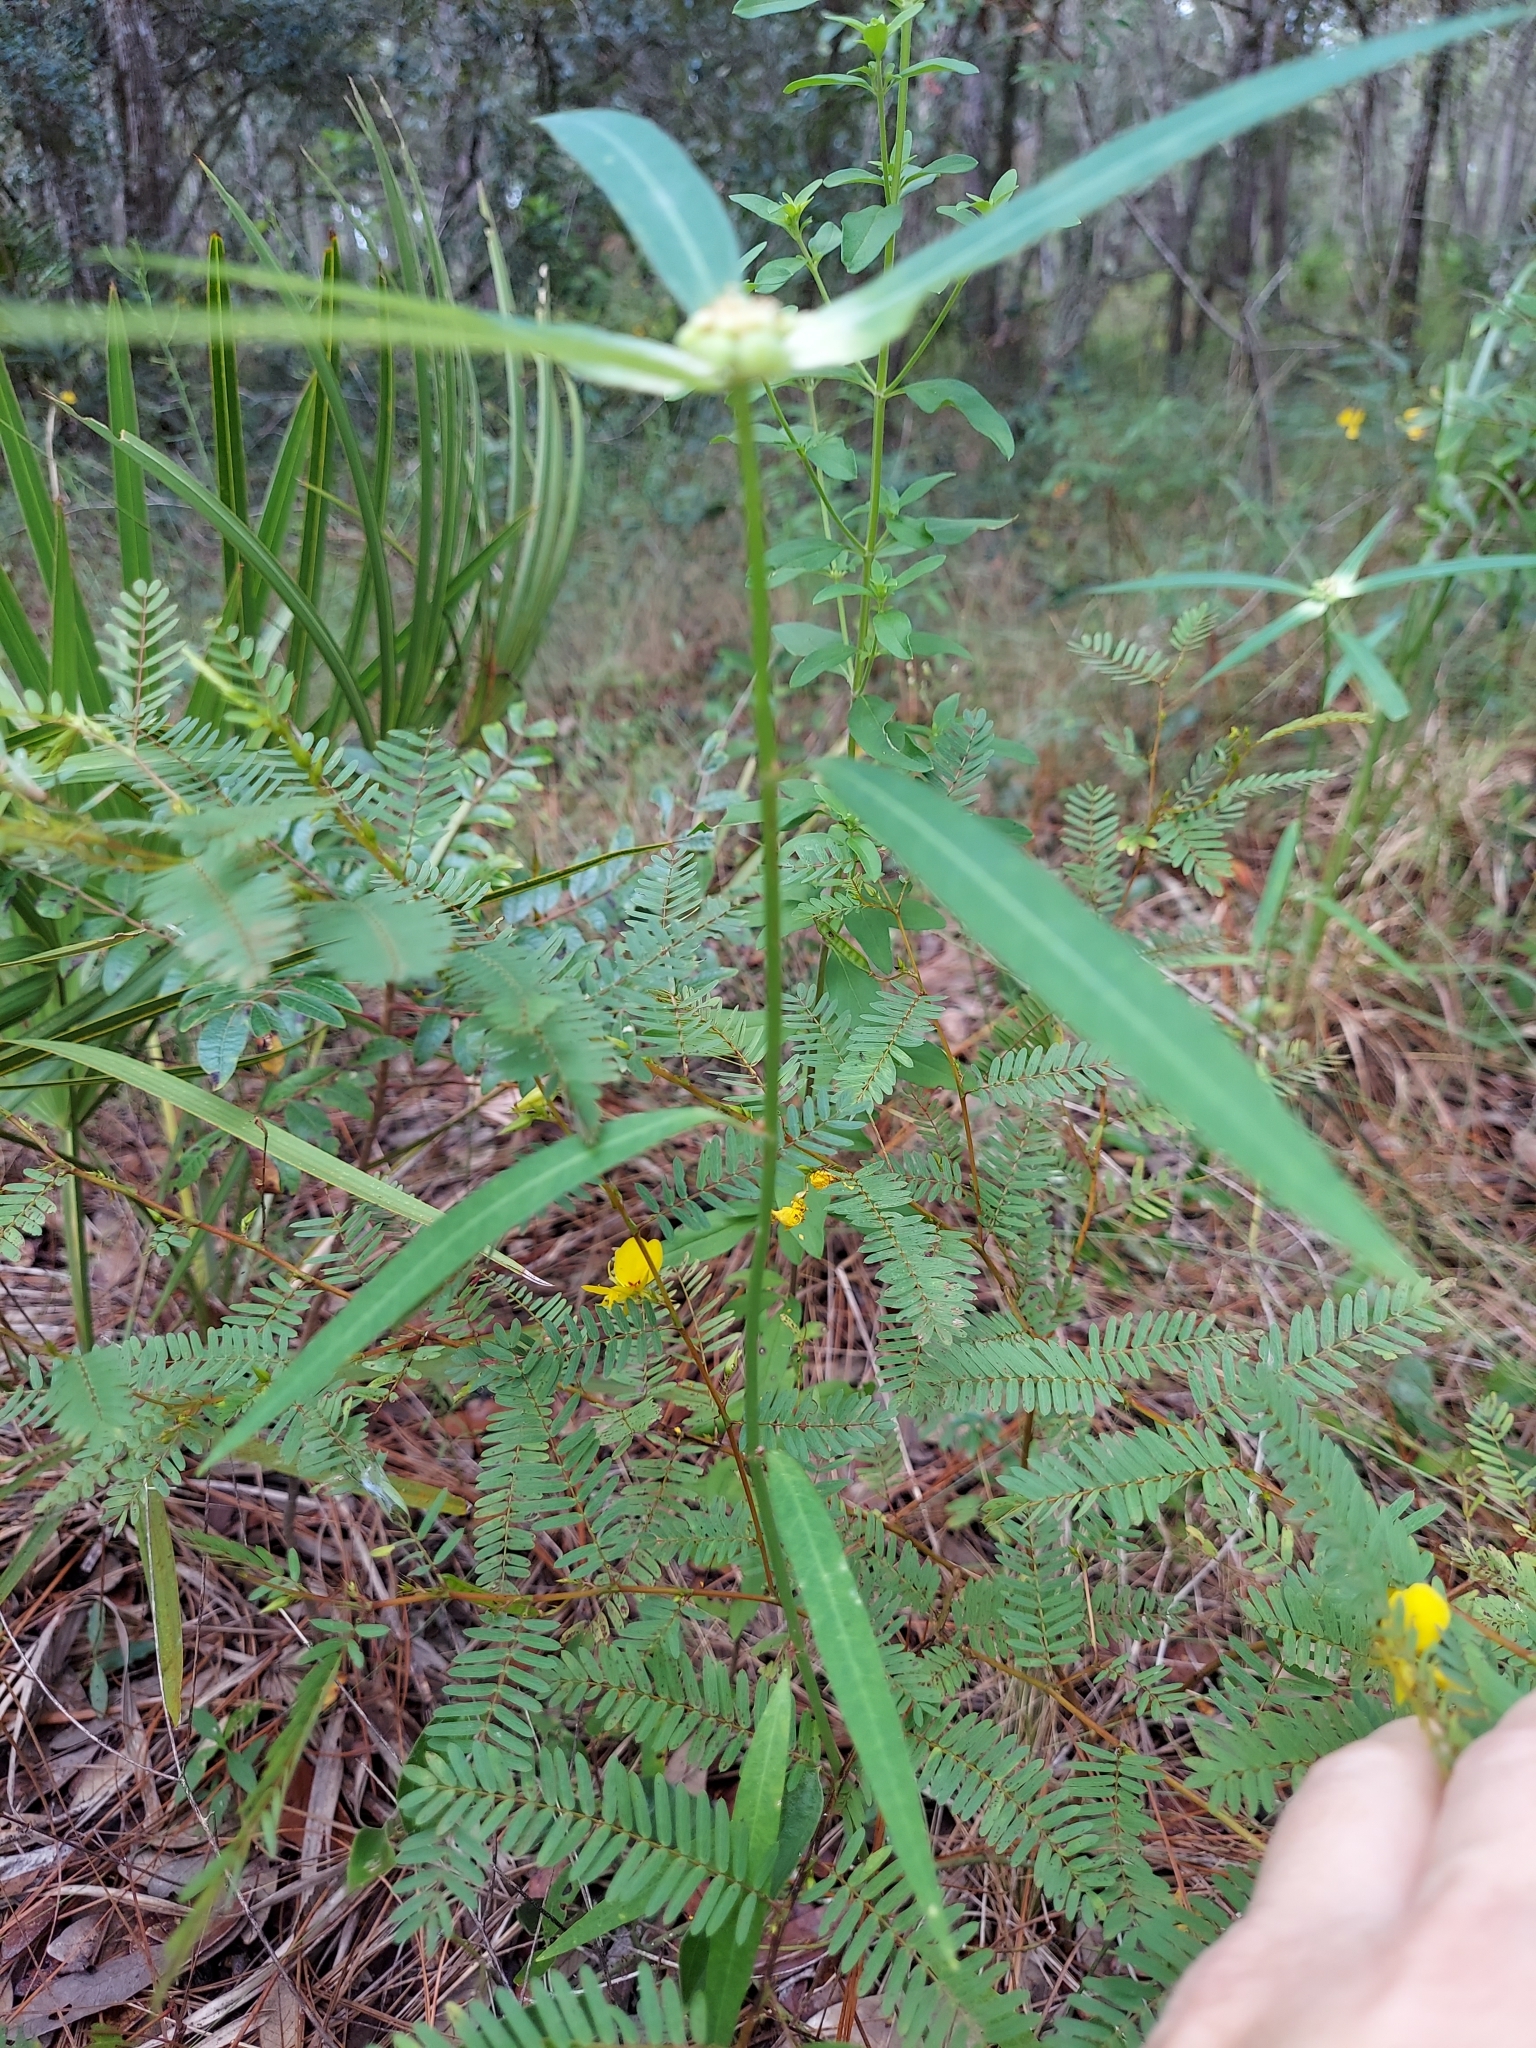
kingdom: Plantae
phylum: Tracheophyta
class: Magnoliopsida
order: Malpighiales
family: Euphorbiaceae
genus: Euphorbia
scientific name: Euphorbia heterophylla
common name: Mexican fireplant
